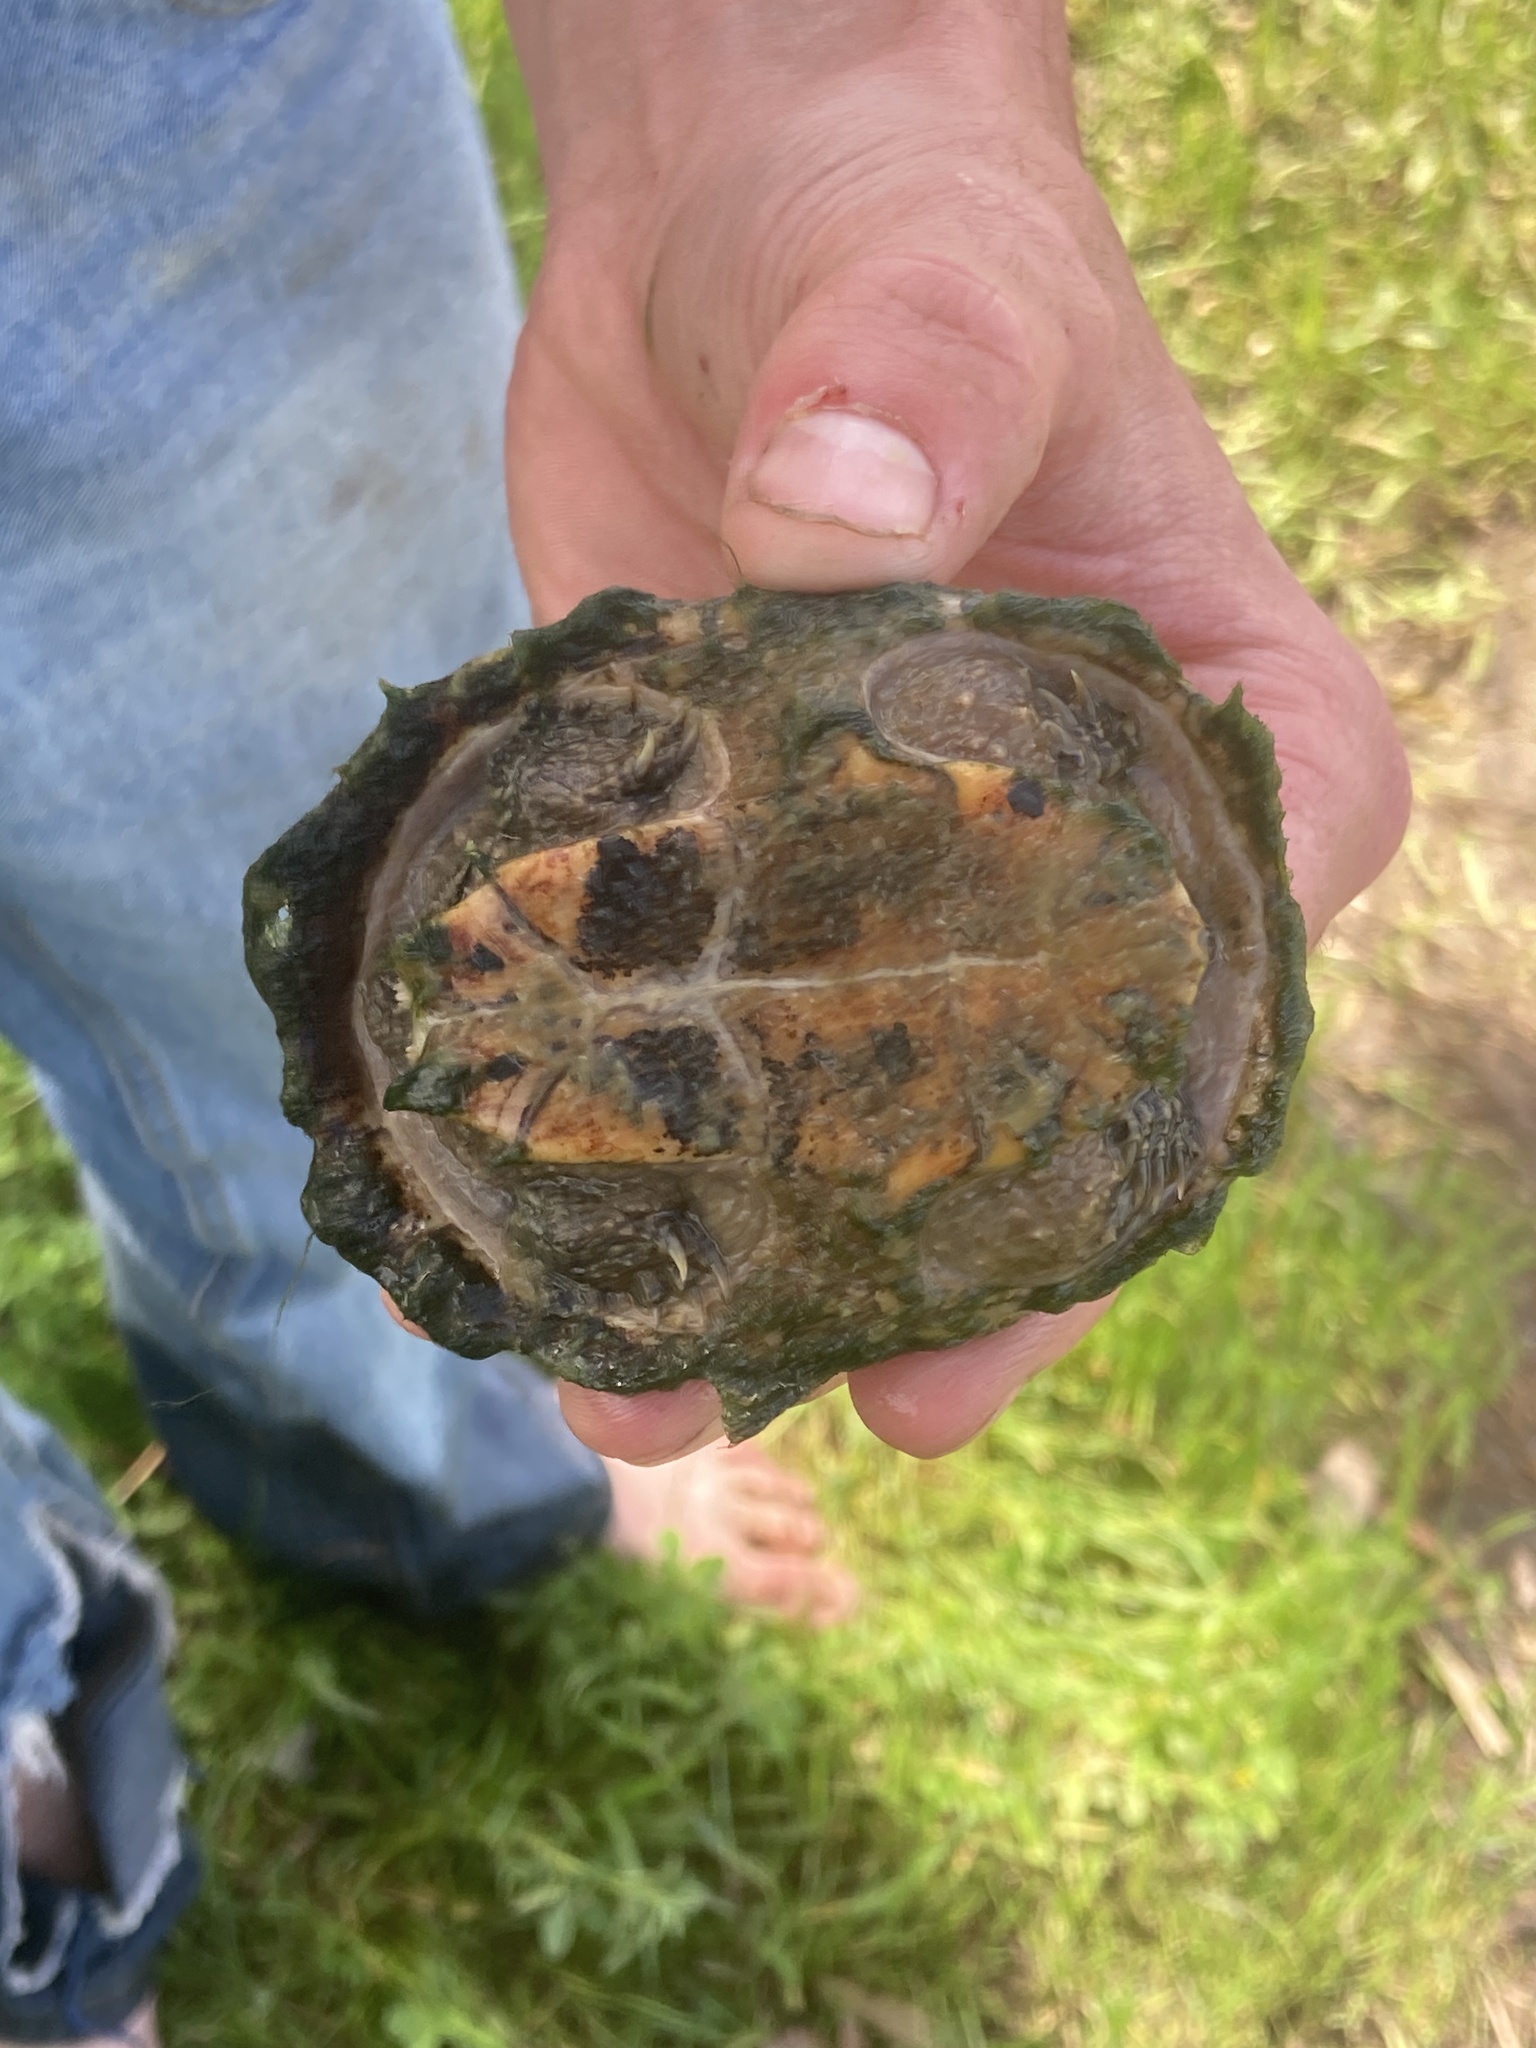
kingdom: Animalia
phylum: Chordata
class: Testudines
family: Kinosternidae
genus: Sternotherus
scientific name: Sternotherus odoratus
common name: Common musk turtle
